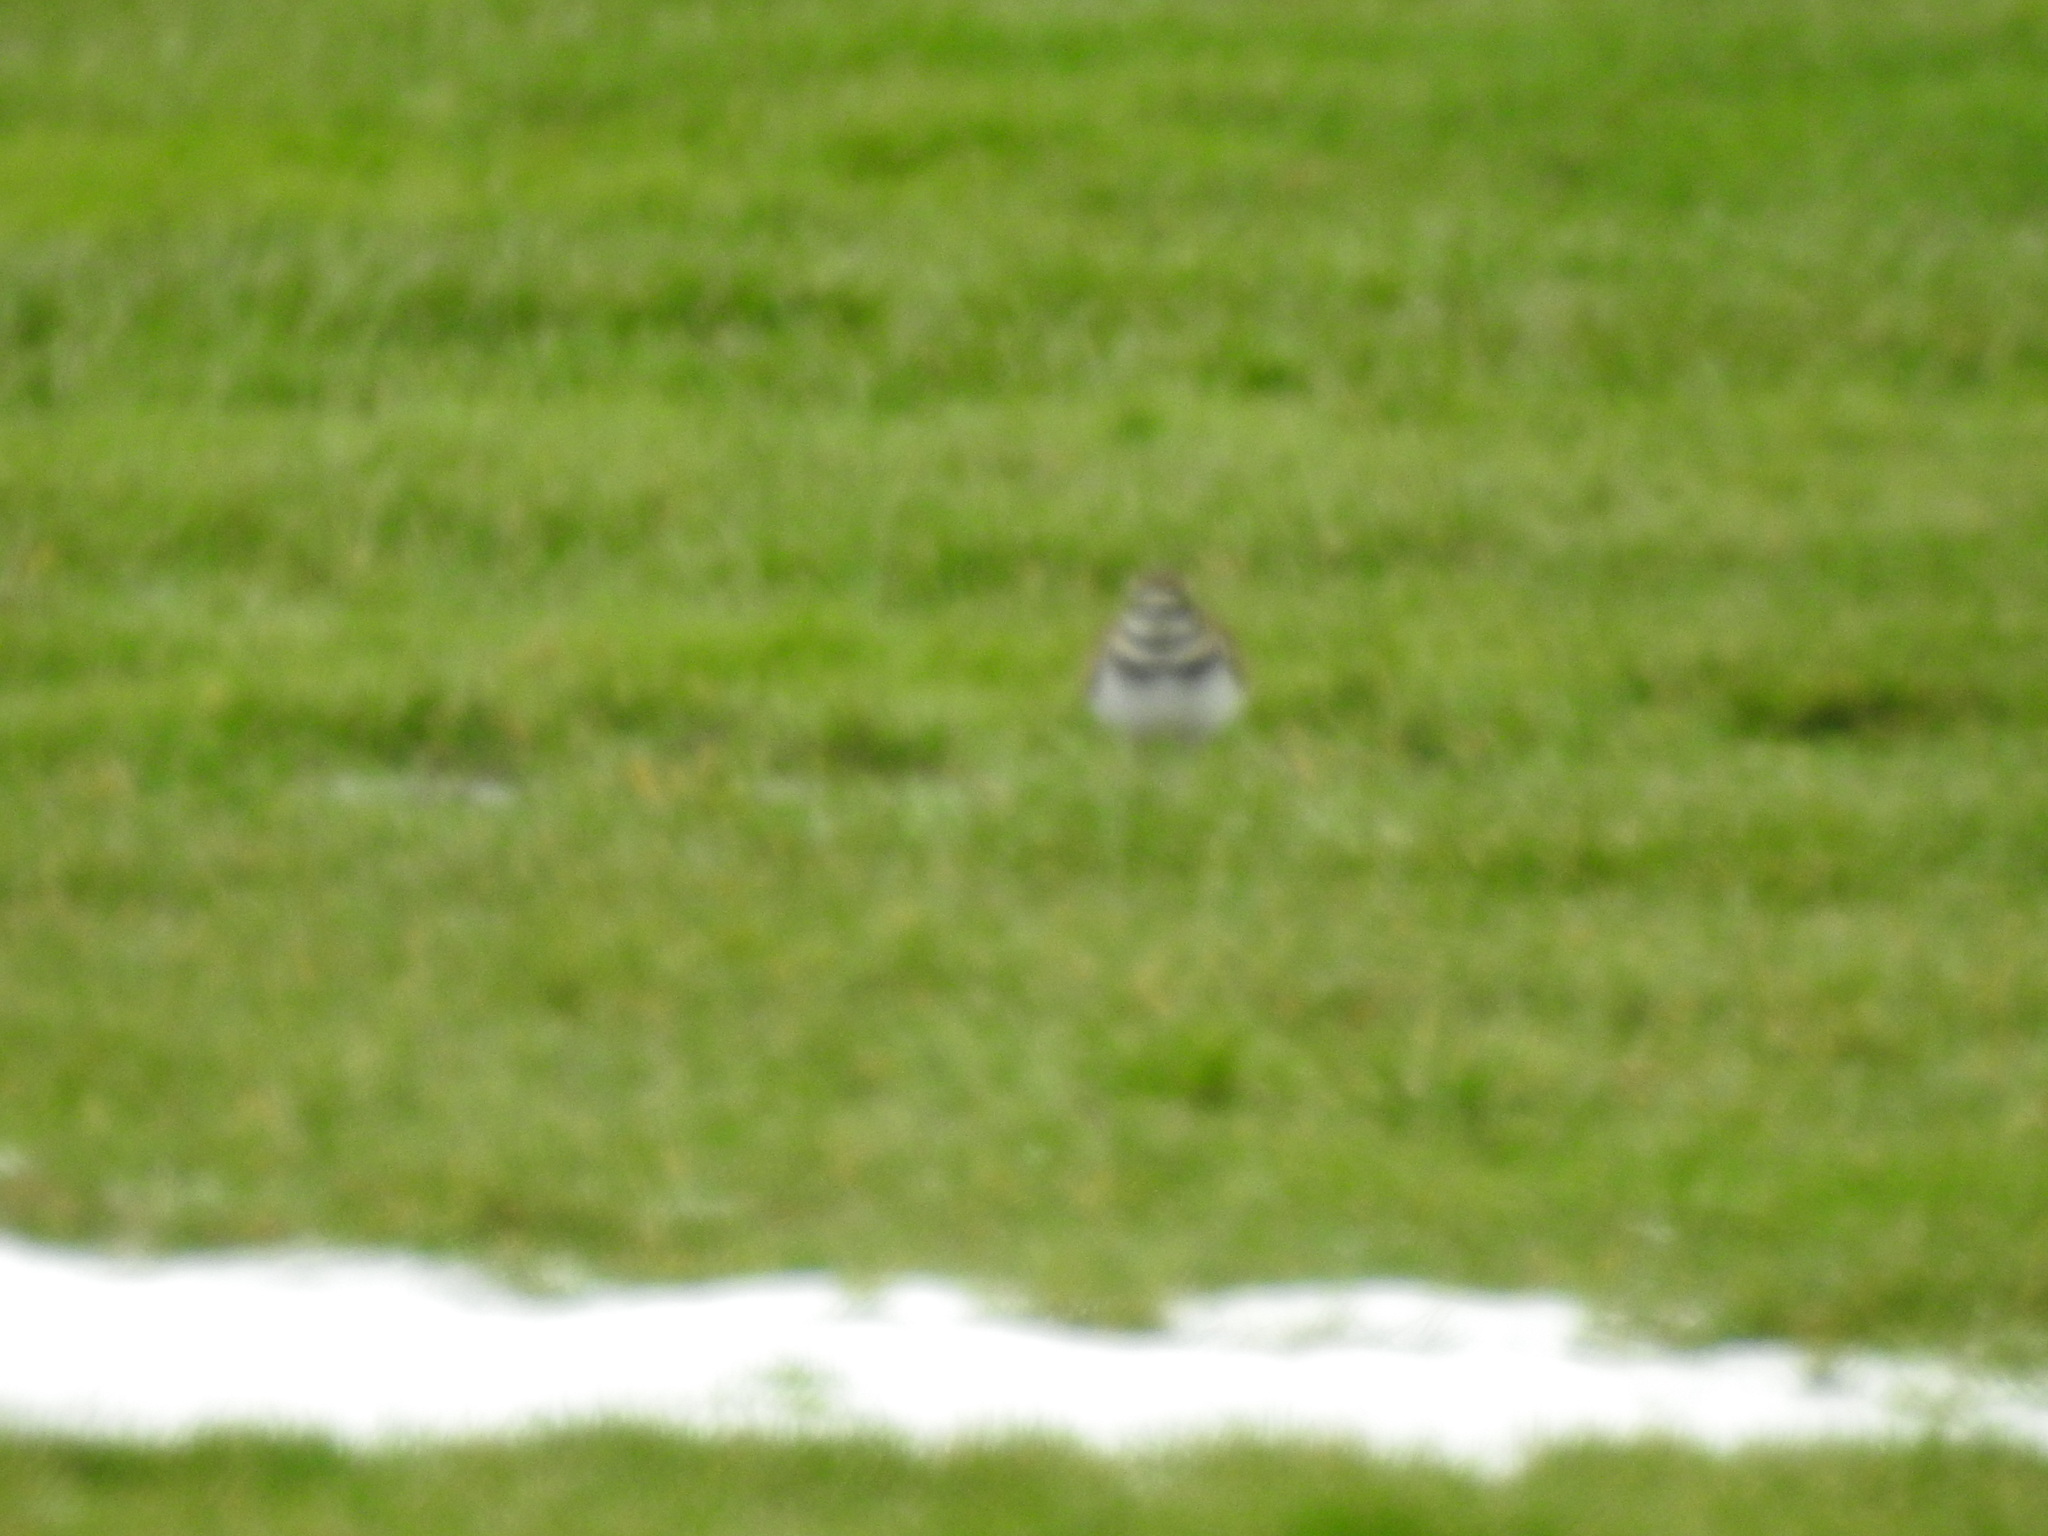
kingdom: Animalia
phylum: Chordata
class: Aves
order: Charadriiformes
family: Charadriidae
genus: Charadrius
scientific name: Charadrius vociferus
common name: Killdeer
